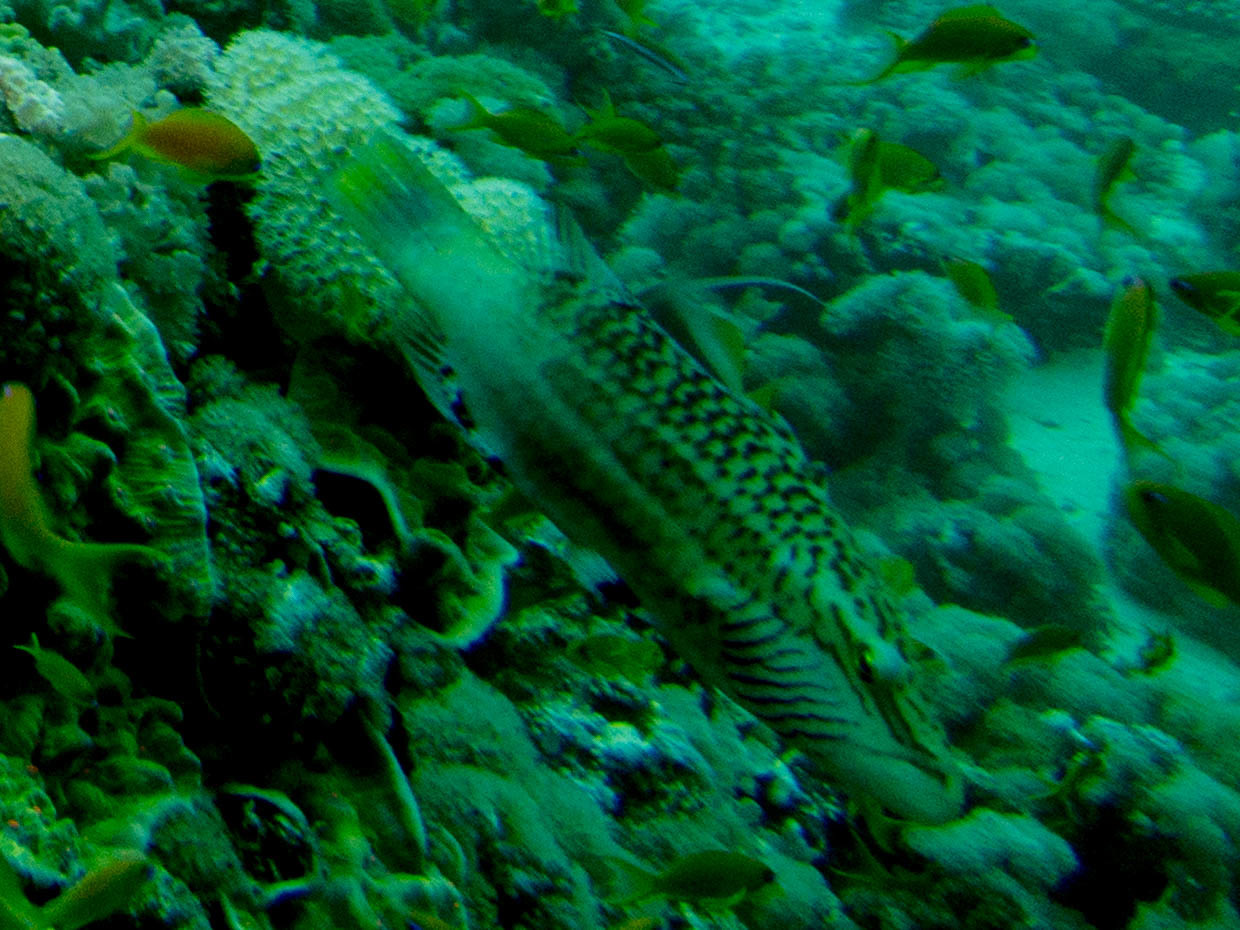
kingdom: Animalia
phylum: Chordata
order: Perciformes
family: Labridae
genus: Oxycheilinus
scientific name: Oxycheilinus digramma
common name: Bandcheek wrasse
